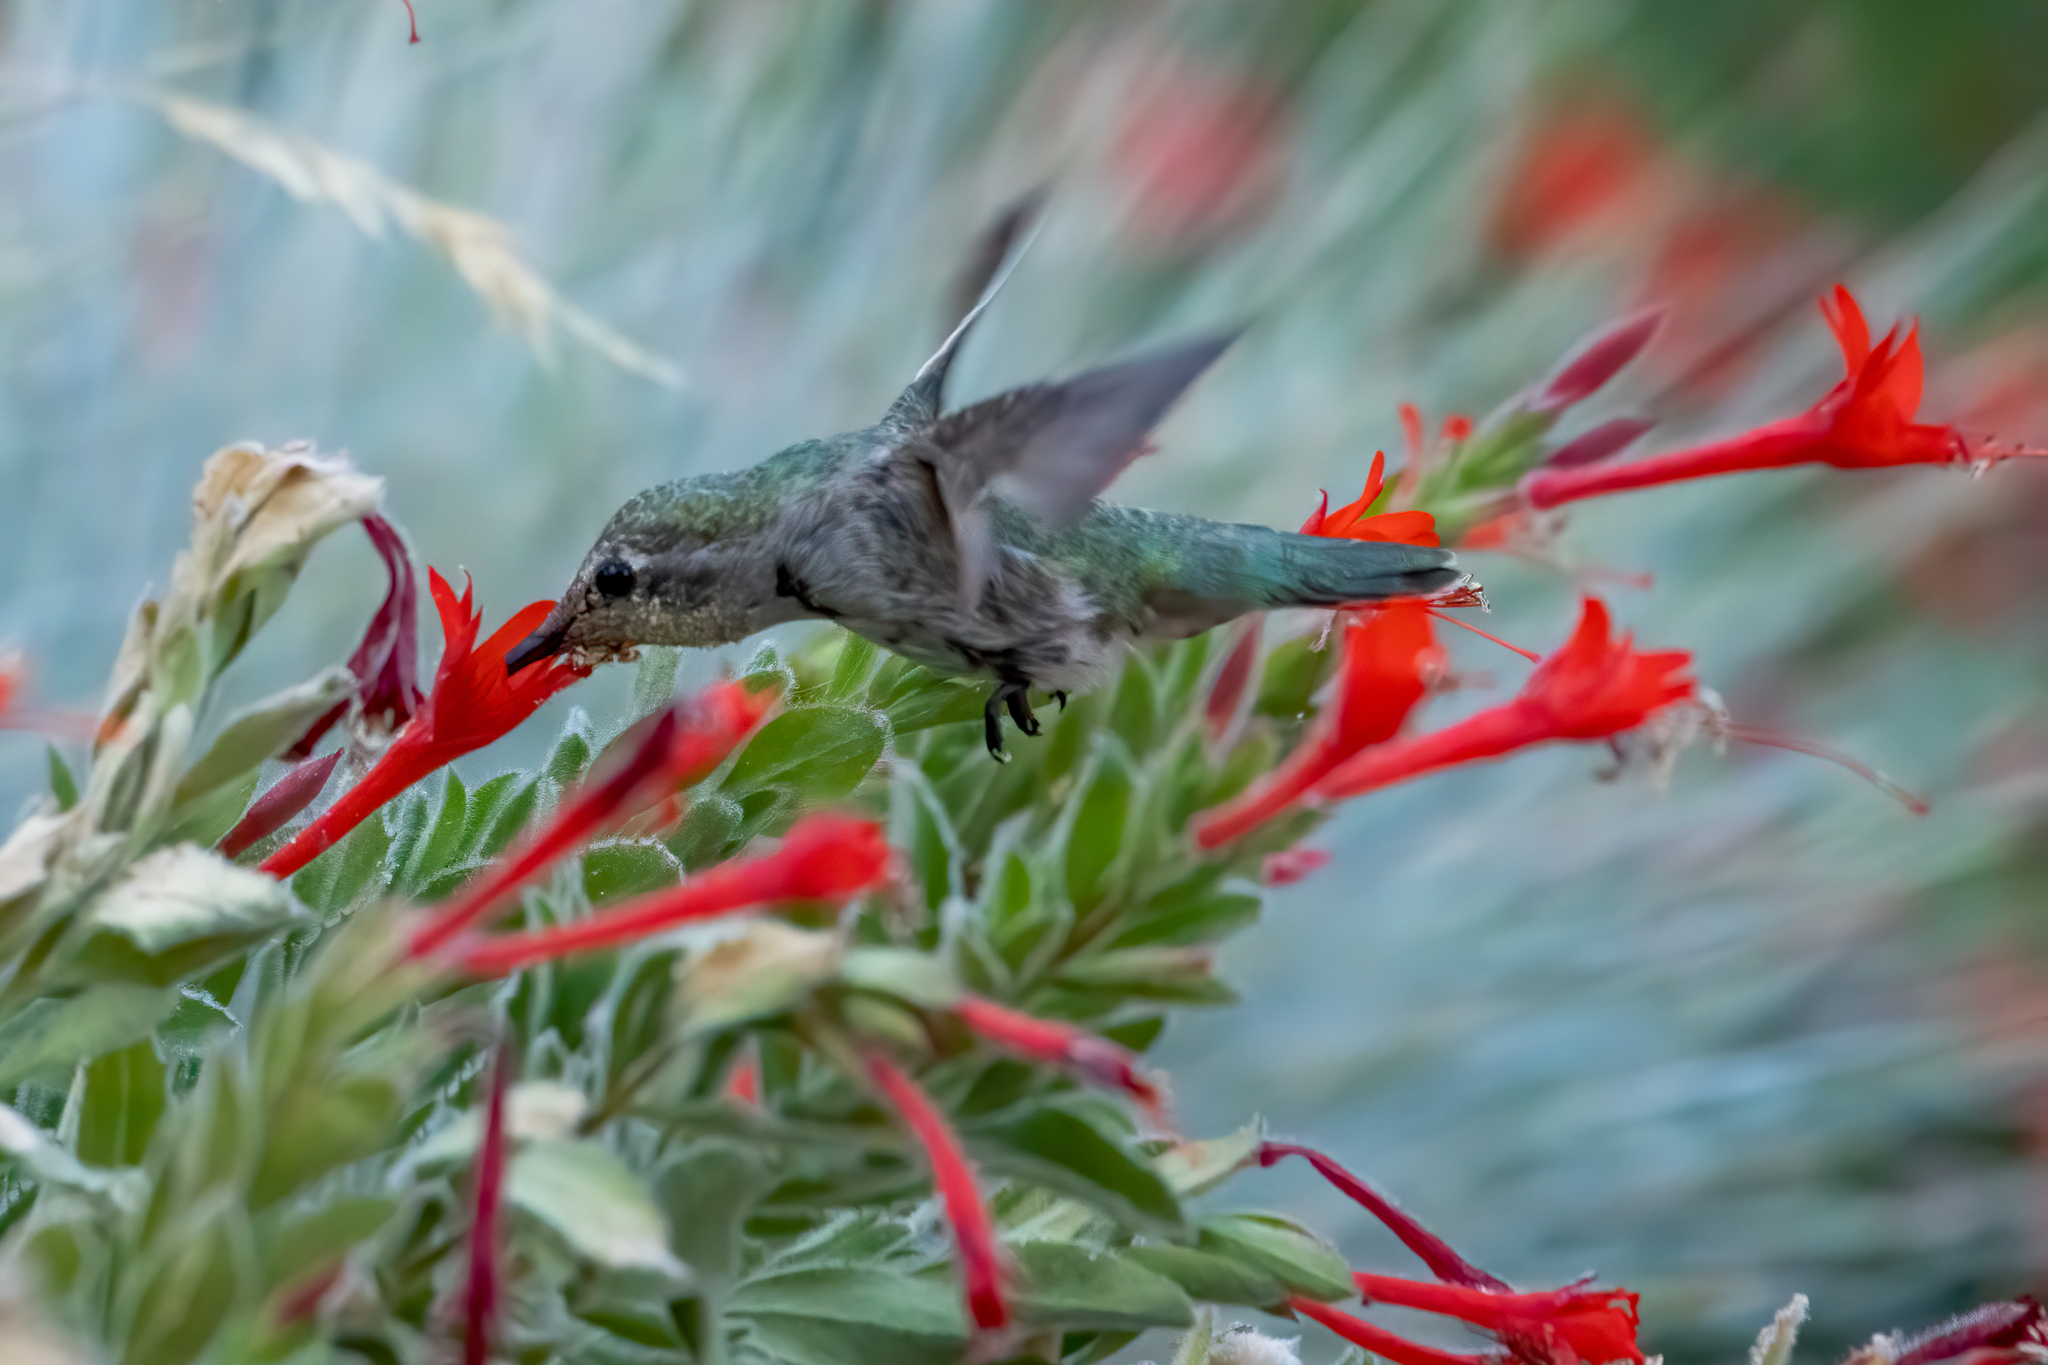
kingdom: Animalia
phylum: Chordata
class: Aves
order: Apodiformes
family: Trochilidae
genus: Calypte
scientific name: Calypte anna
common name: Anna's hummingbird
